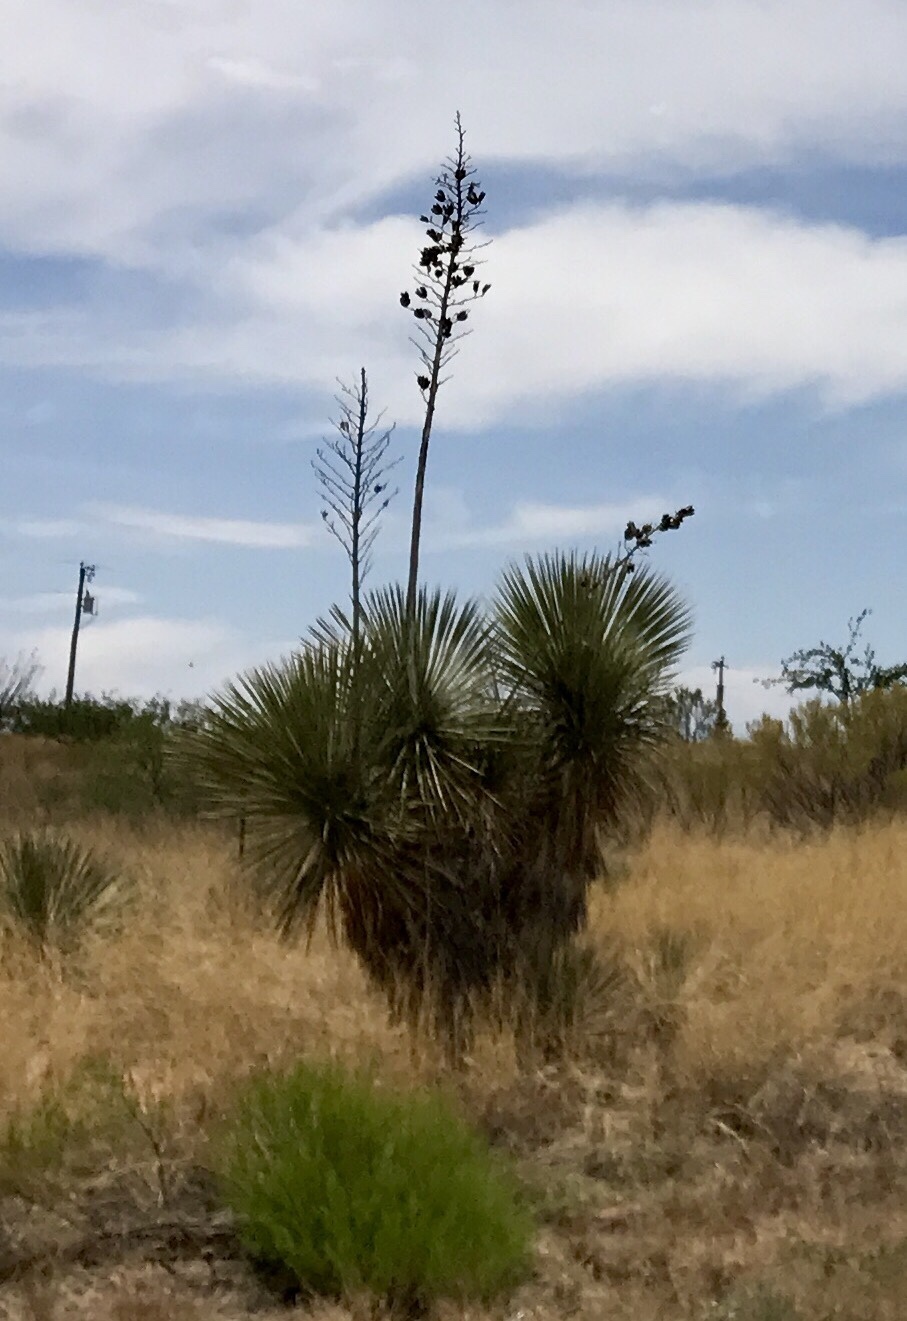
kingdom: Plantae
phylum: Tracheophyta
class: Liliopsida
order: Asparagales
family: Asparagaceae
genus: Yucca
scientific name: Yucca elata
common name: Palmella
